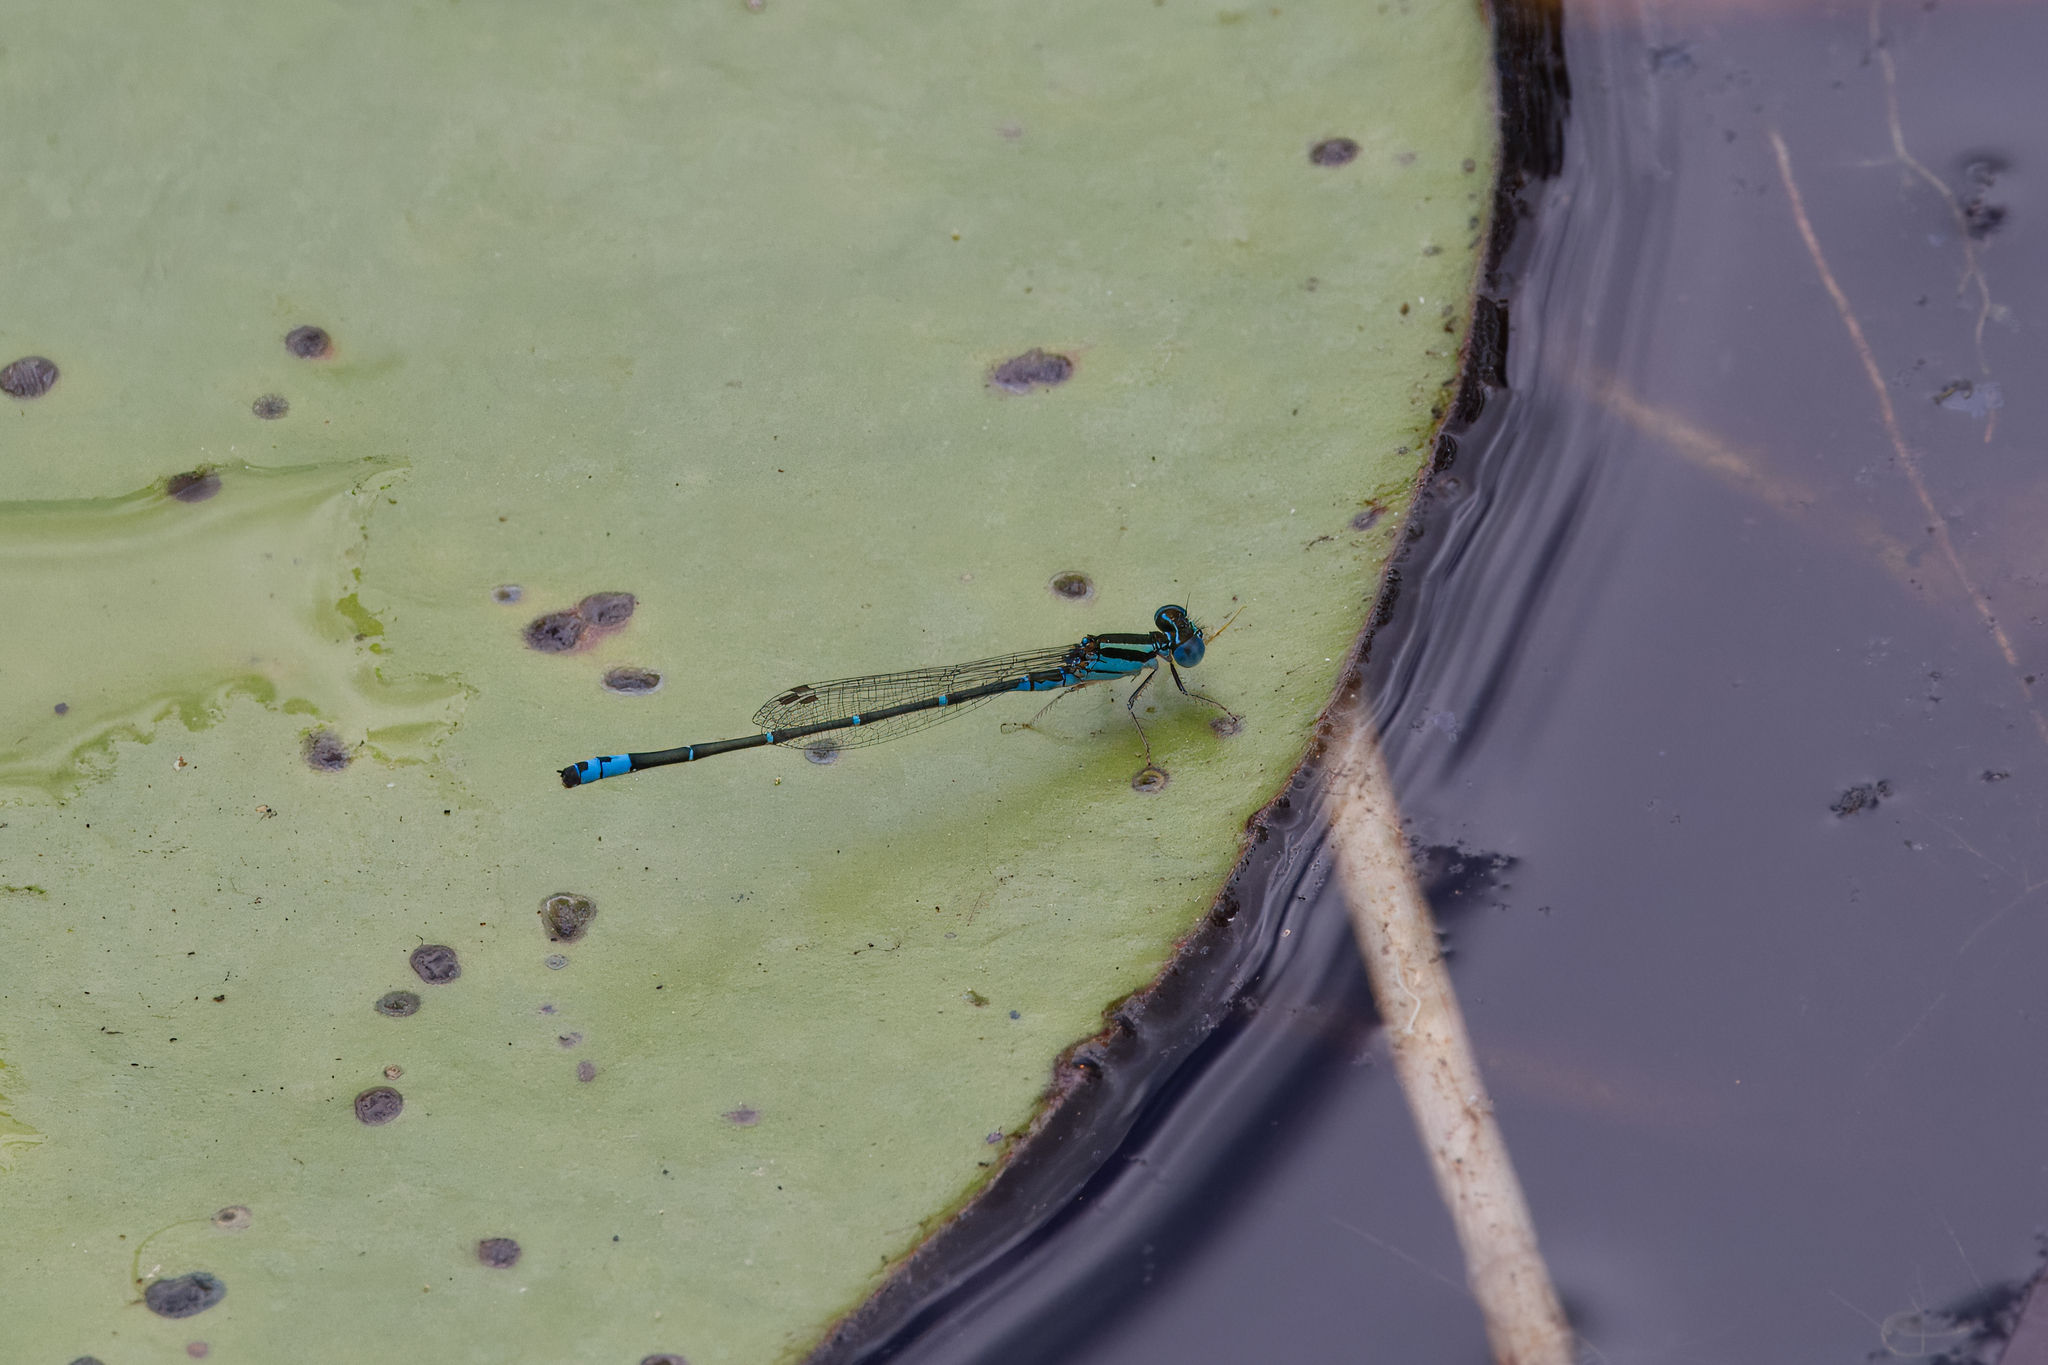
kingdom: Animalia
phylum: Arthropoda
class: Insecta
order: Odonata
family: Coenagrionidae
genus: Austroagrion
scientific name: Austroagrion watsoni
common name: Eastern billabongfly
